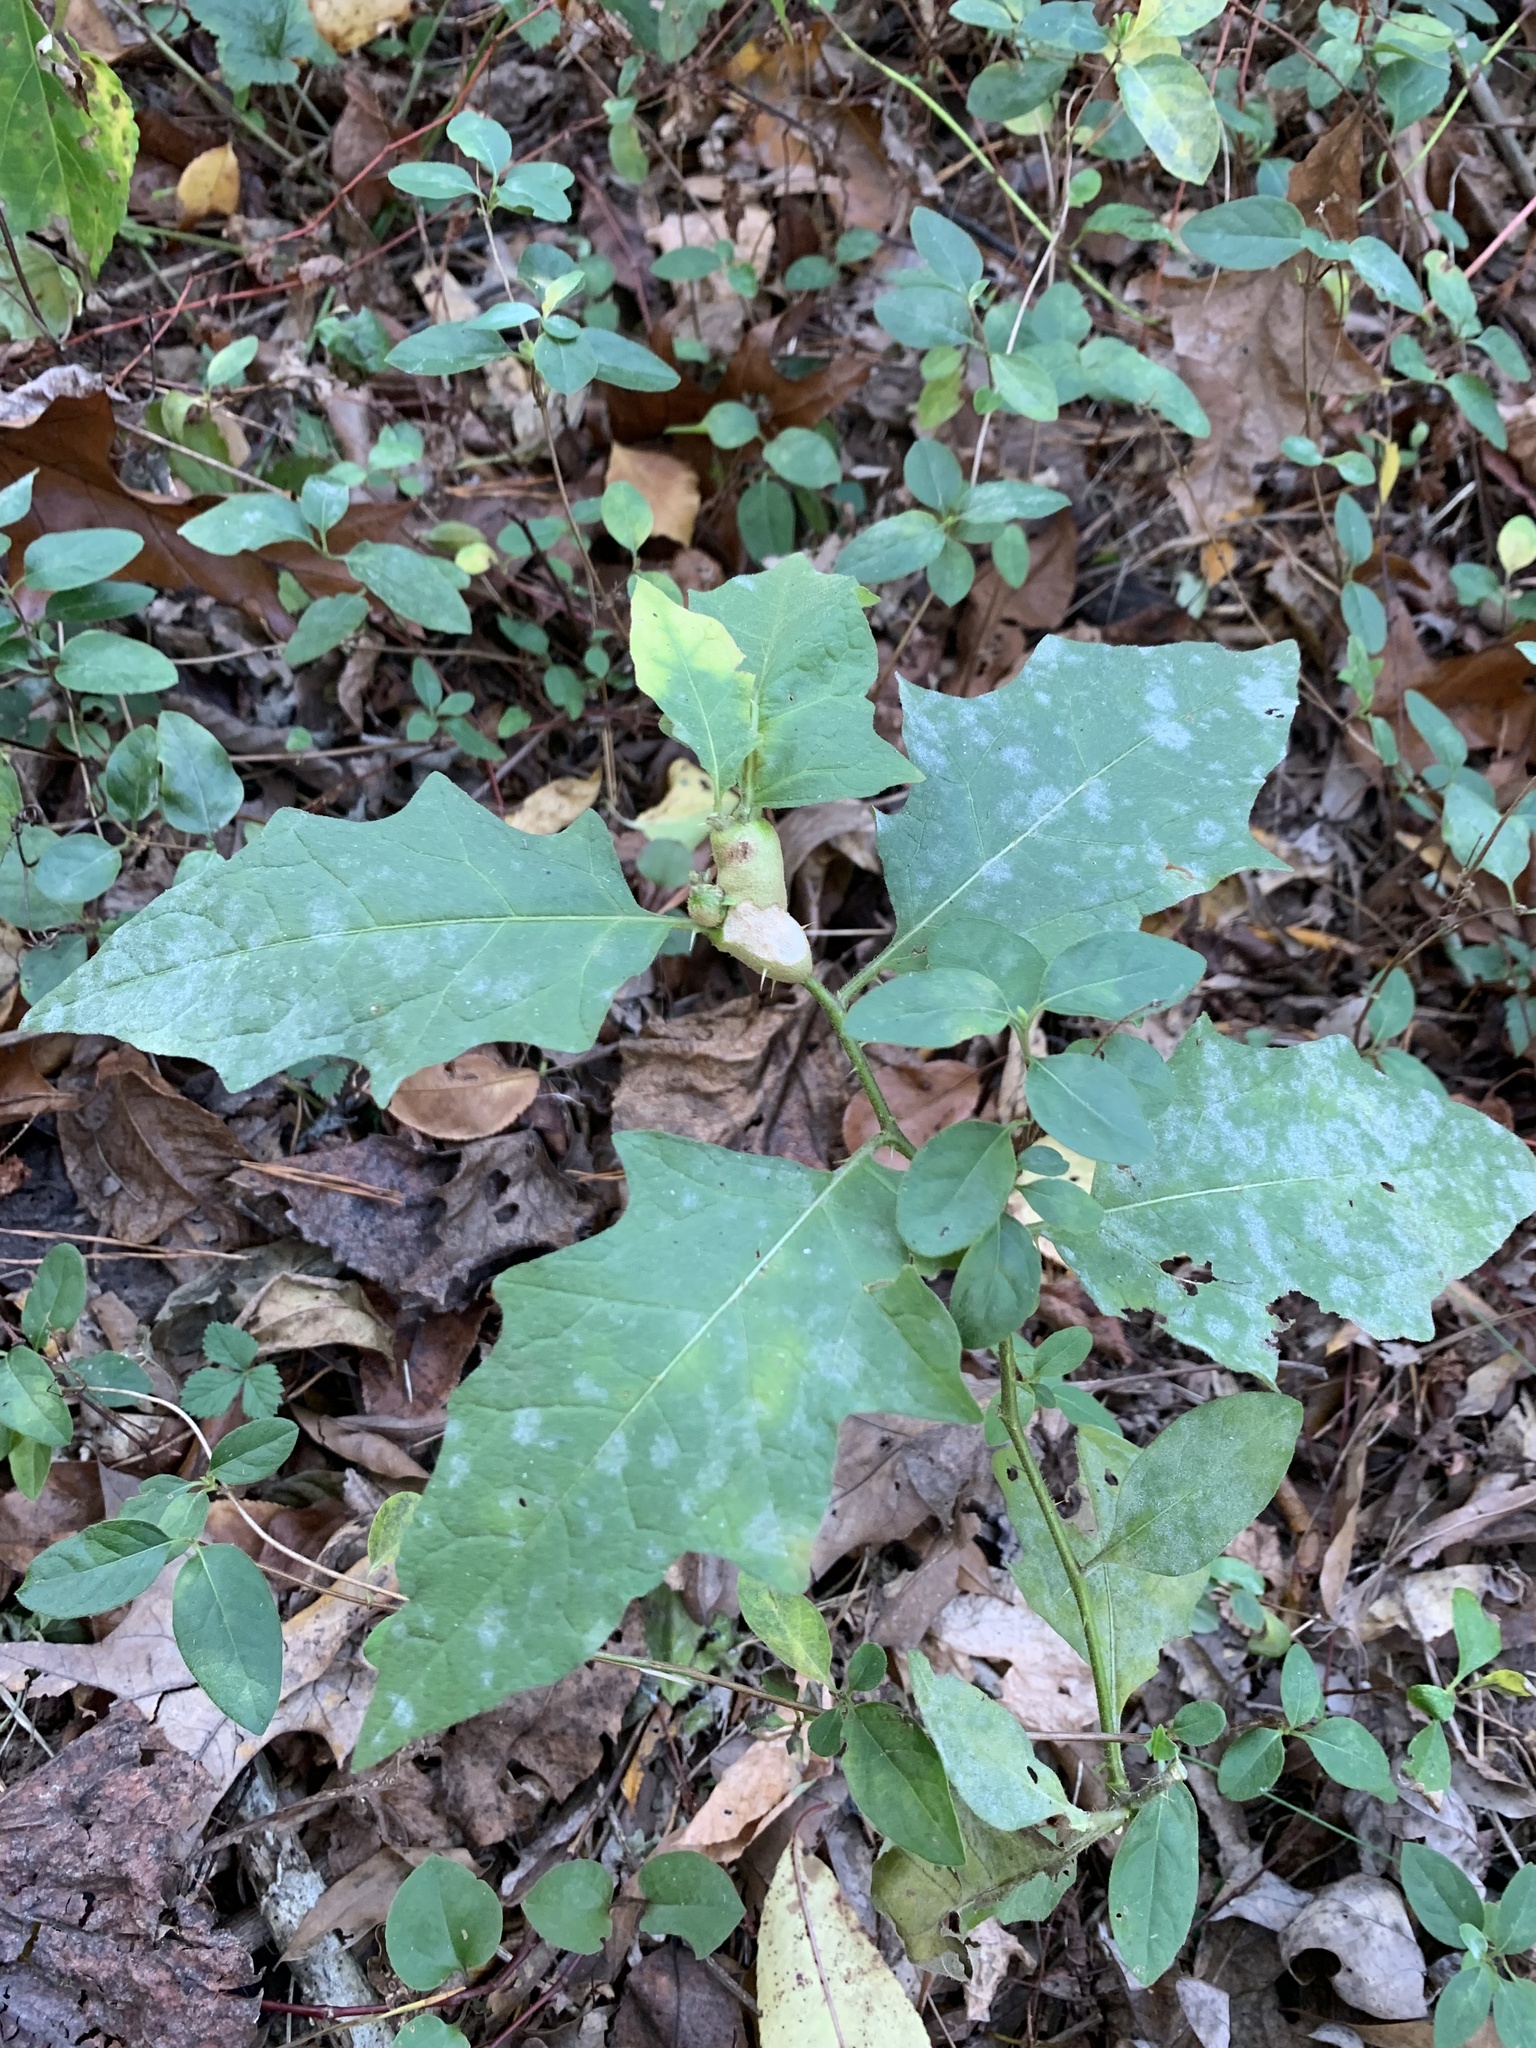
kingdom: Animalia
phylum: Arthropoda
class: Insecta
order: Diptera
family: Cecidomyiidae
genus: Lasioptera
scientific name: Lasioptera solani
